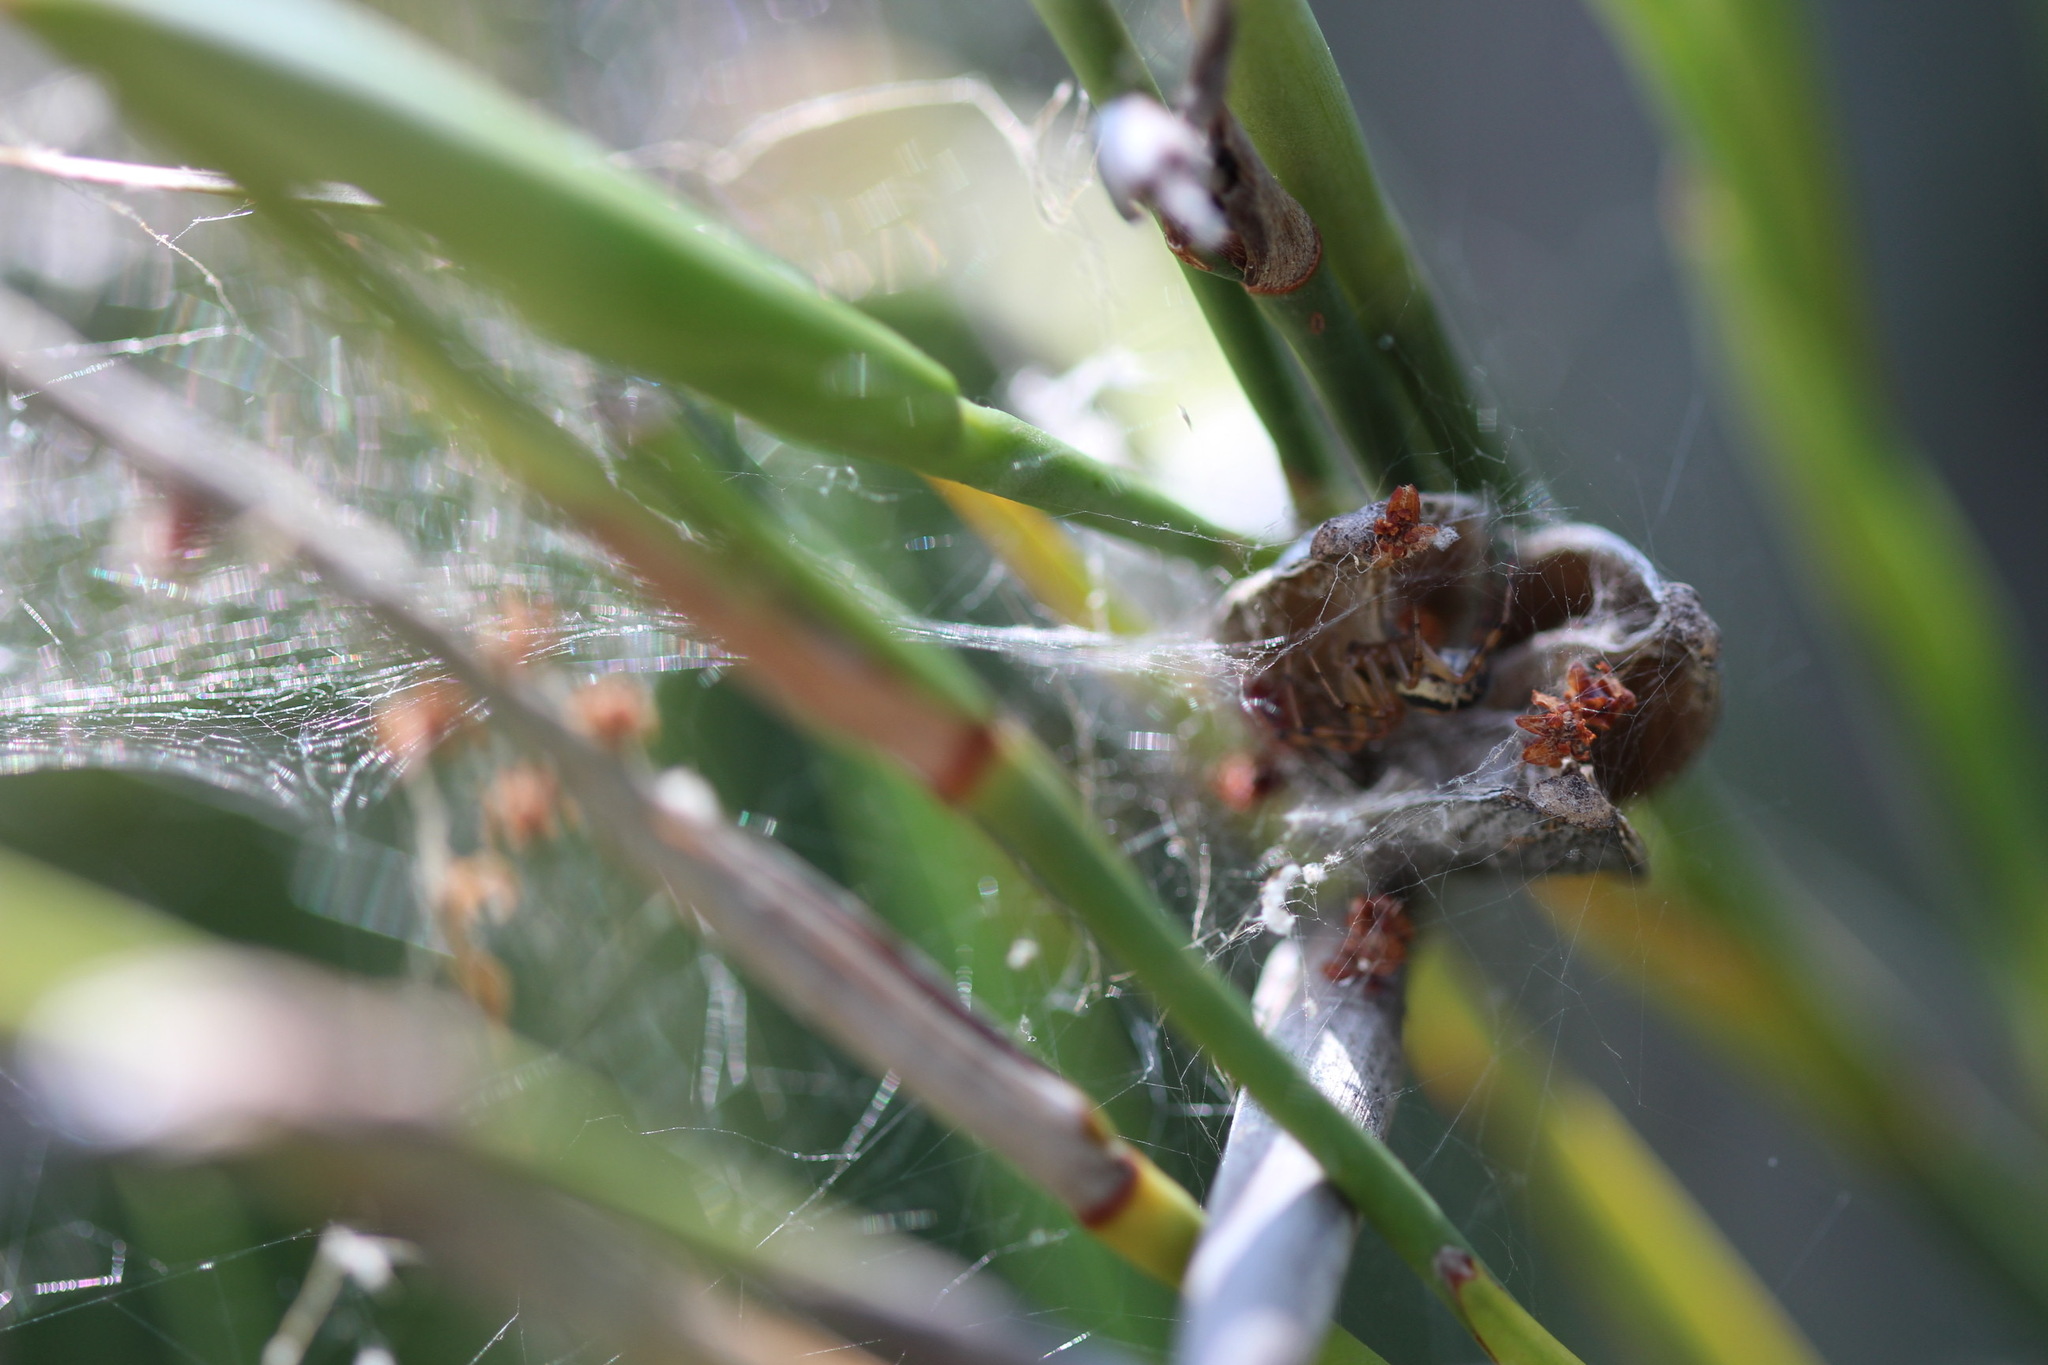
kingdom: Animalia
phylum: Arthropoda
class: Arachnida
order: Araneae
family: Theridiidae
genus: Steatoda
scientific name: Steatoda nobilis
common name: Cobweb weaver
